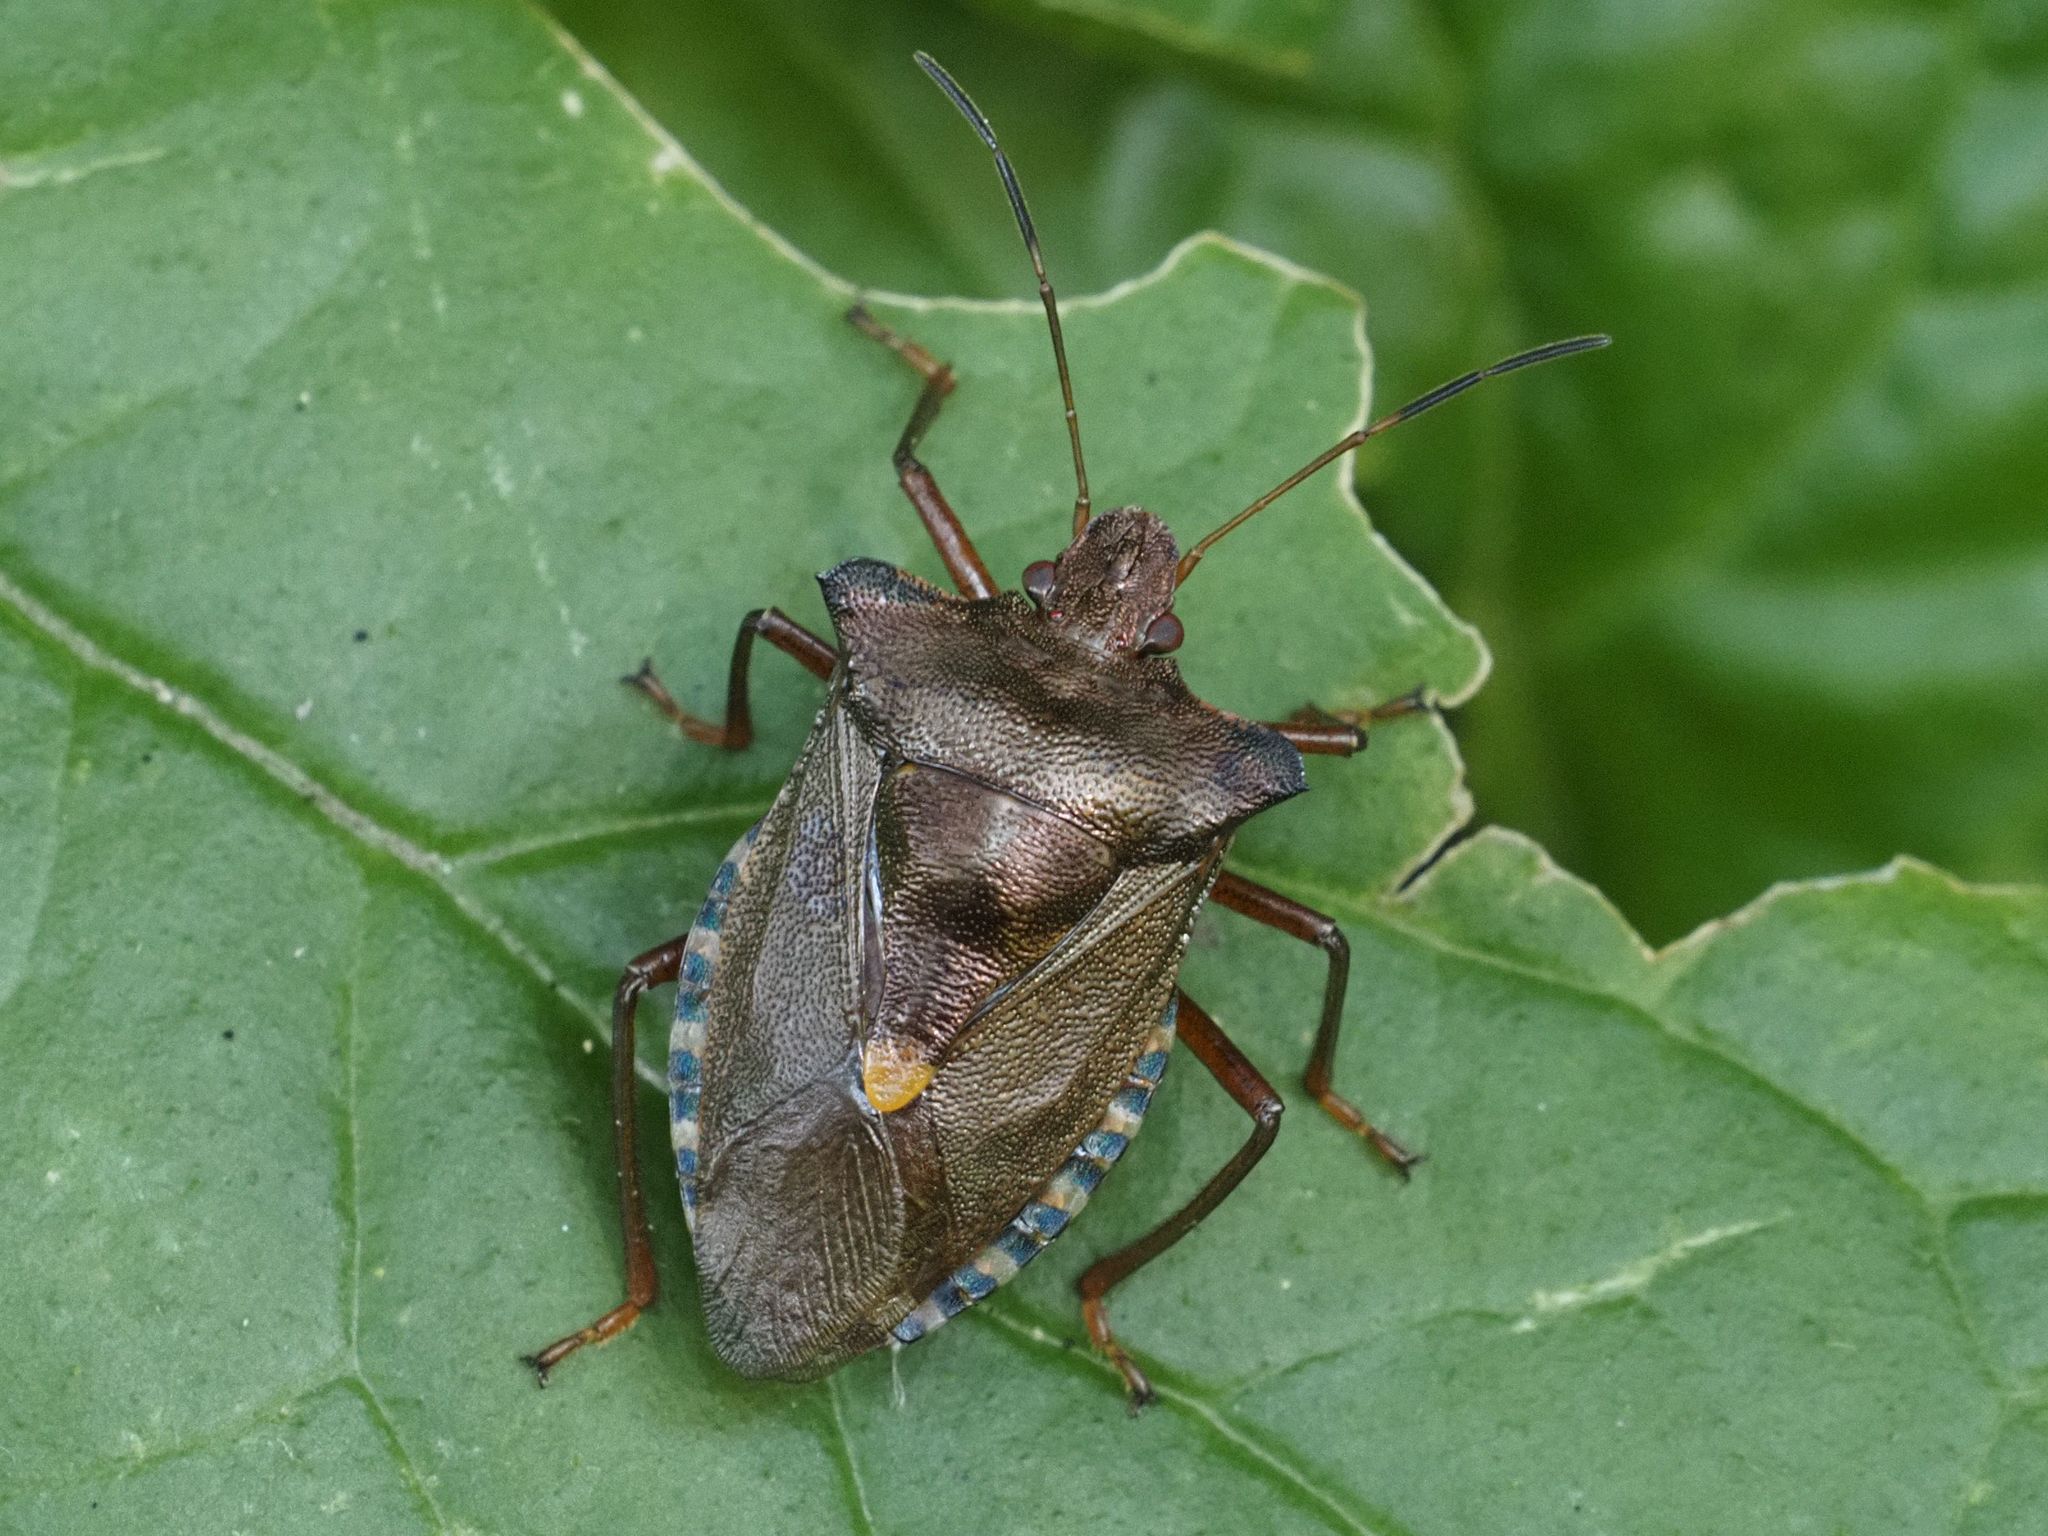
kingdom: Animalia
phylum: Arthropoda
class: Insecta
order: Hemiptera
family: Pentatomidae
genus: Pentatoma
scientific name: Pentatoma rufipes
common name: Forest bug
